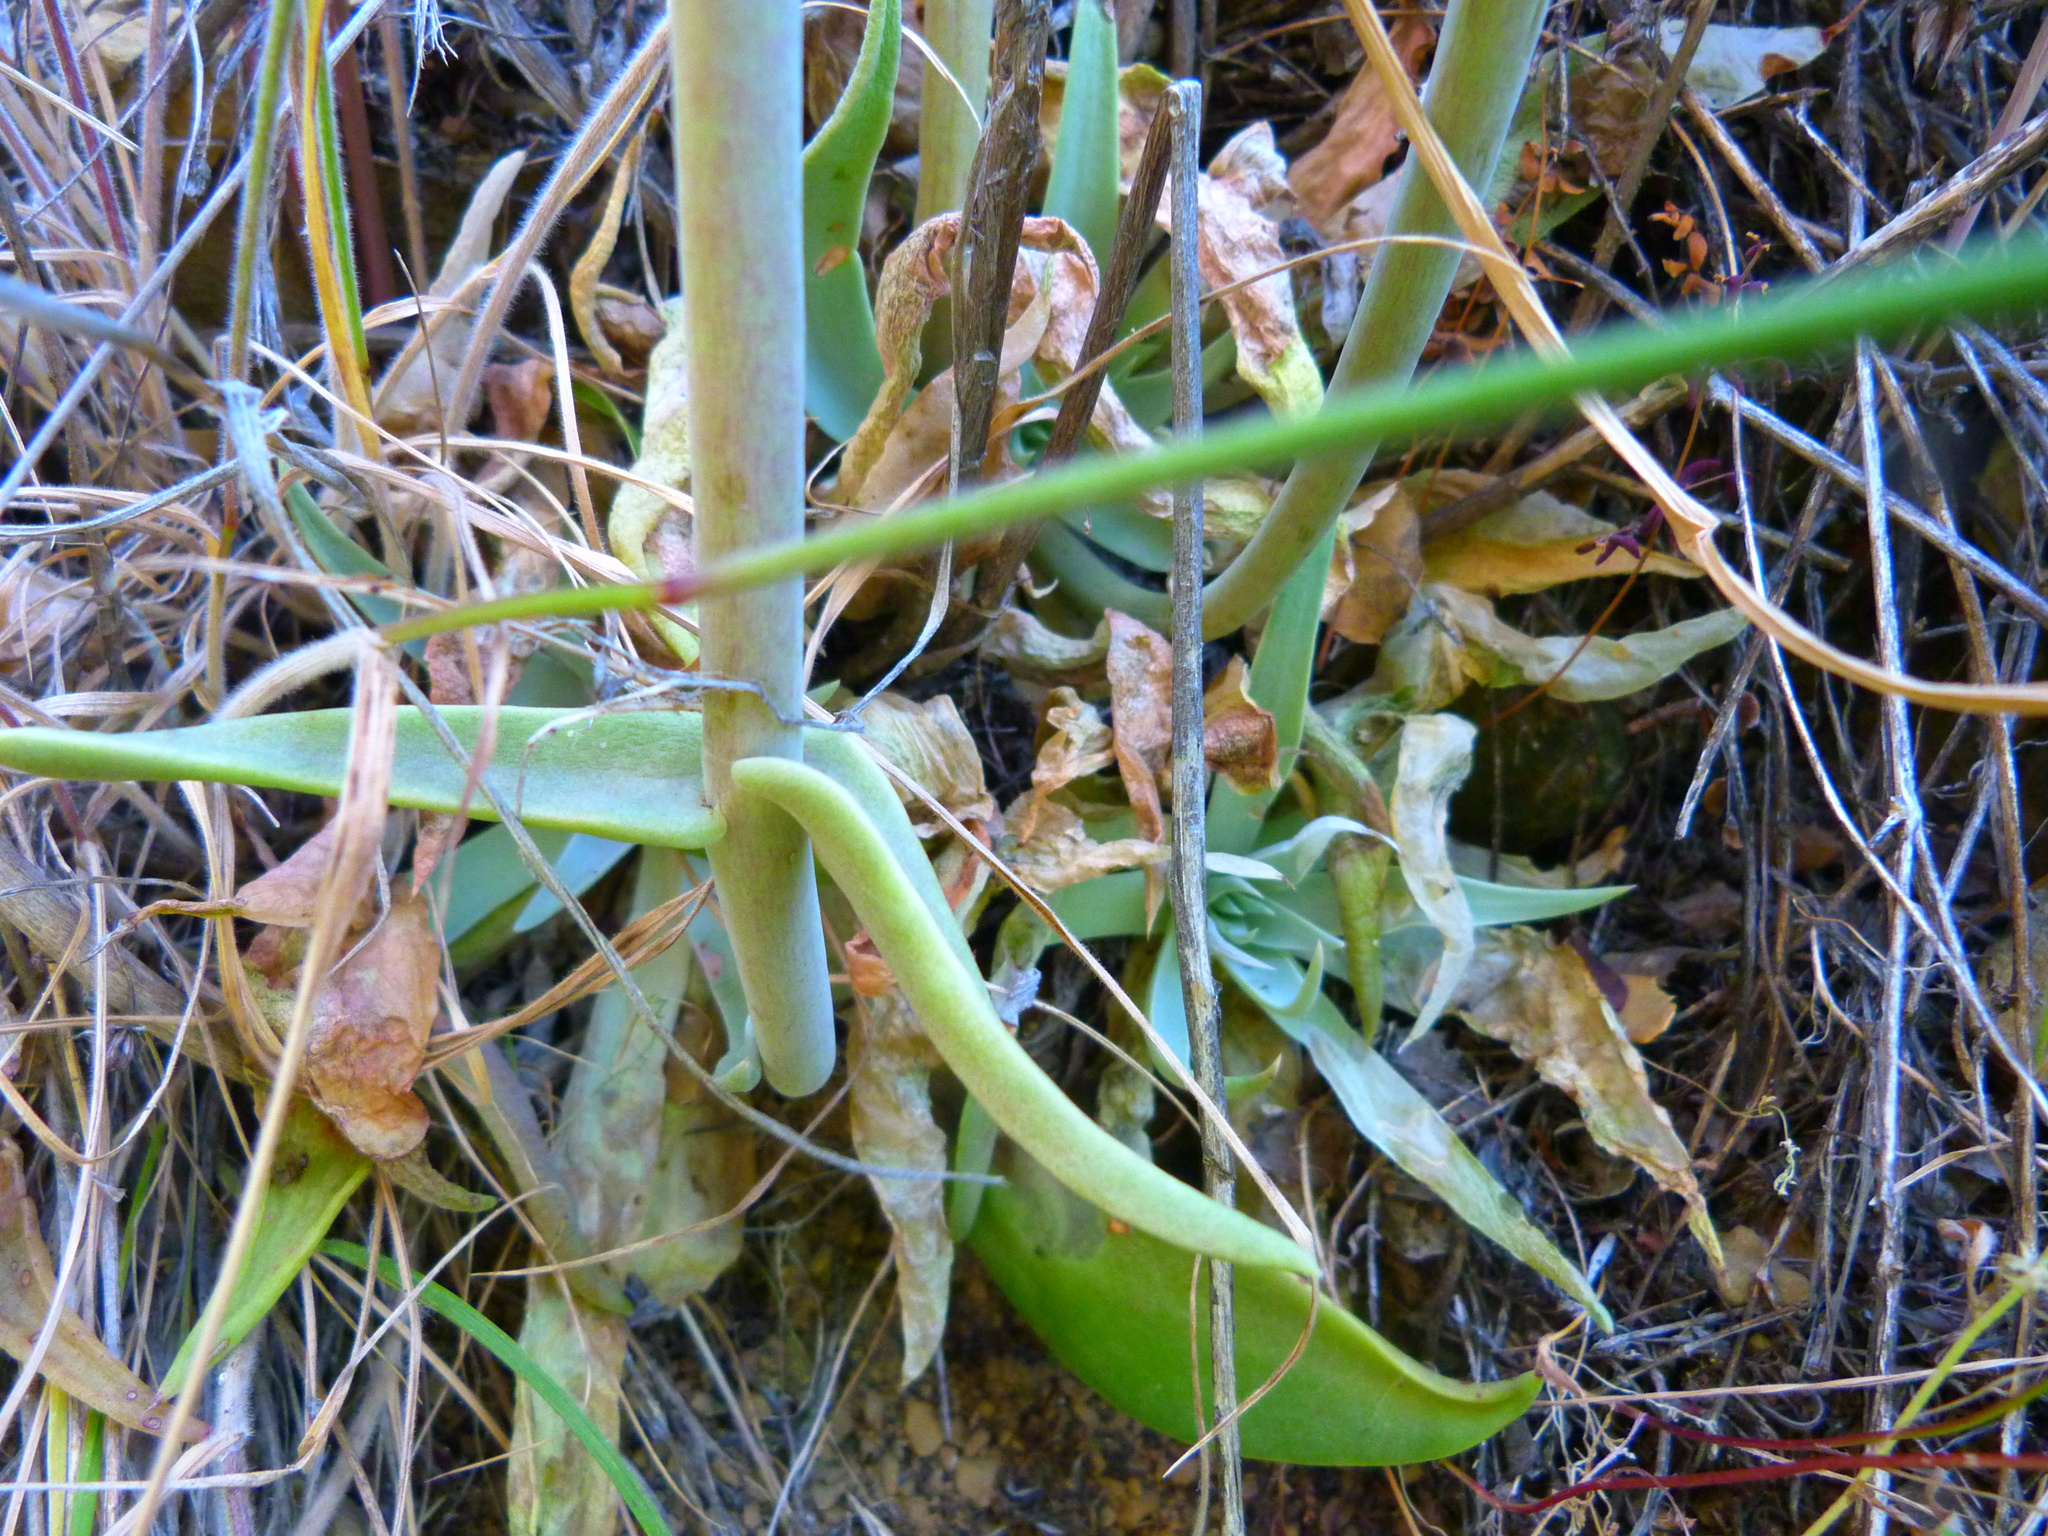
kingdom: Plantae
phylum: Tracheophyta
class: Magnoliopsida
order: Saxifragales
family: Crassulaceae
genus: Dudleya
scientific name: Dudleya lanceolata
